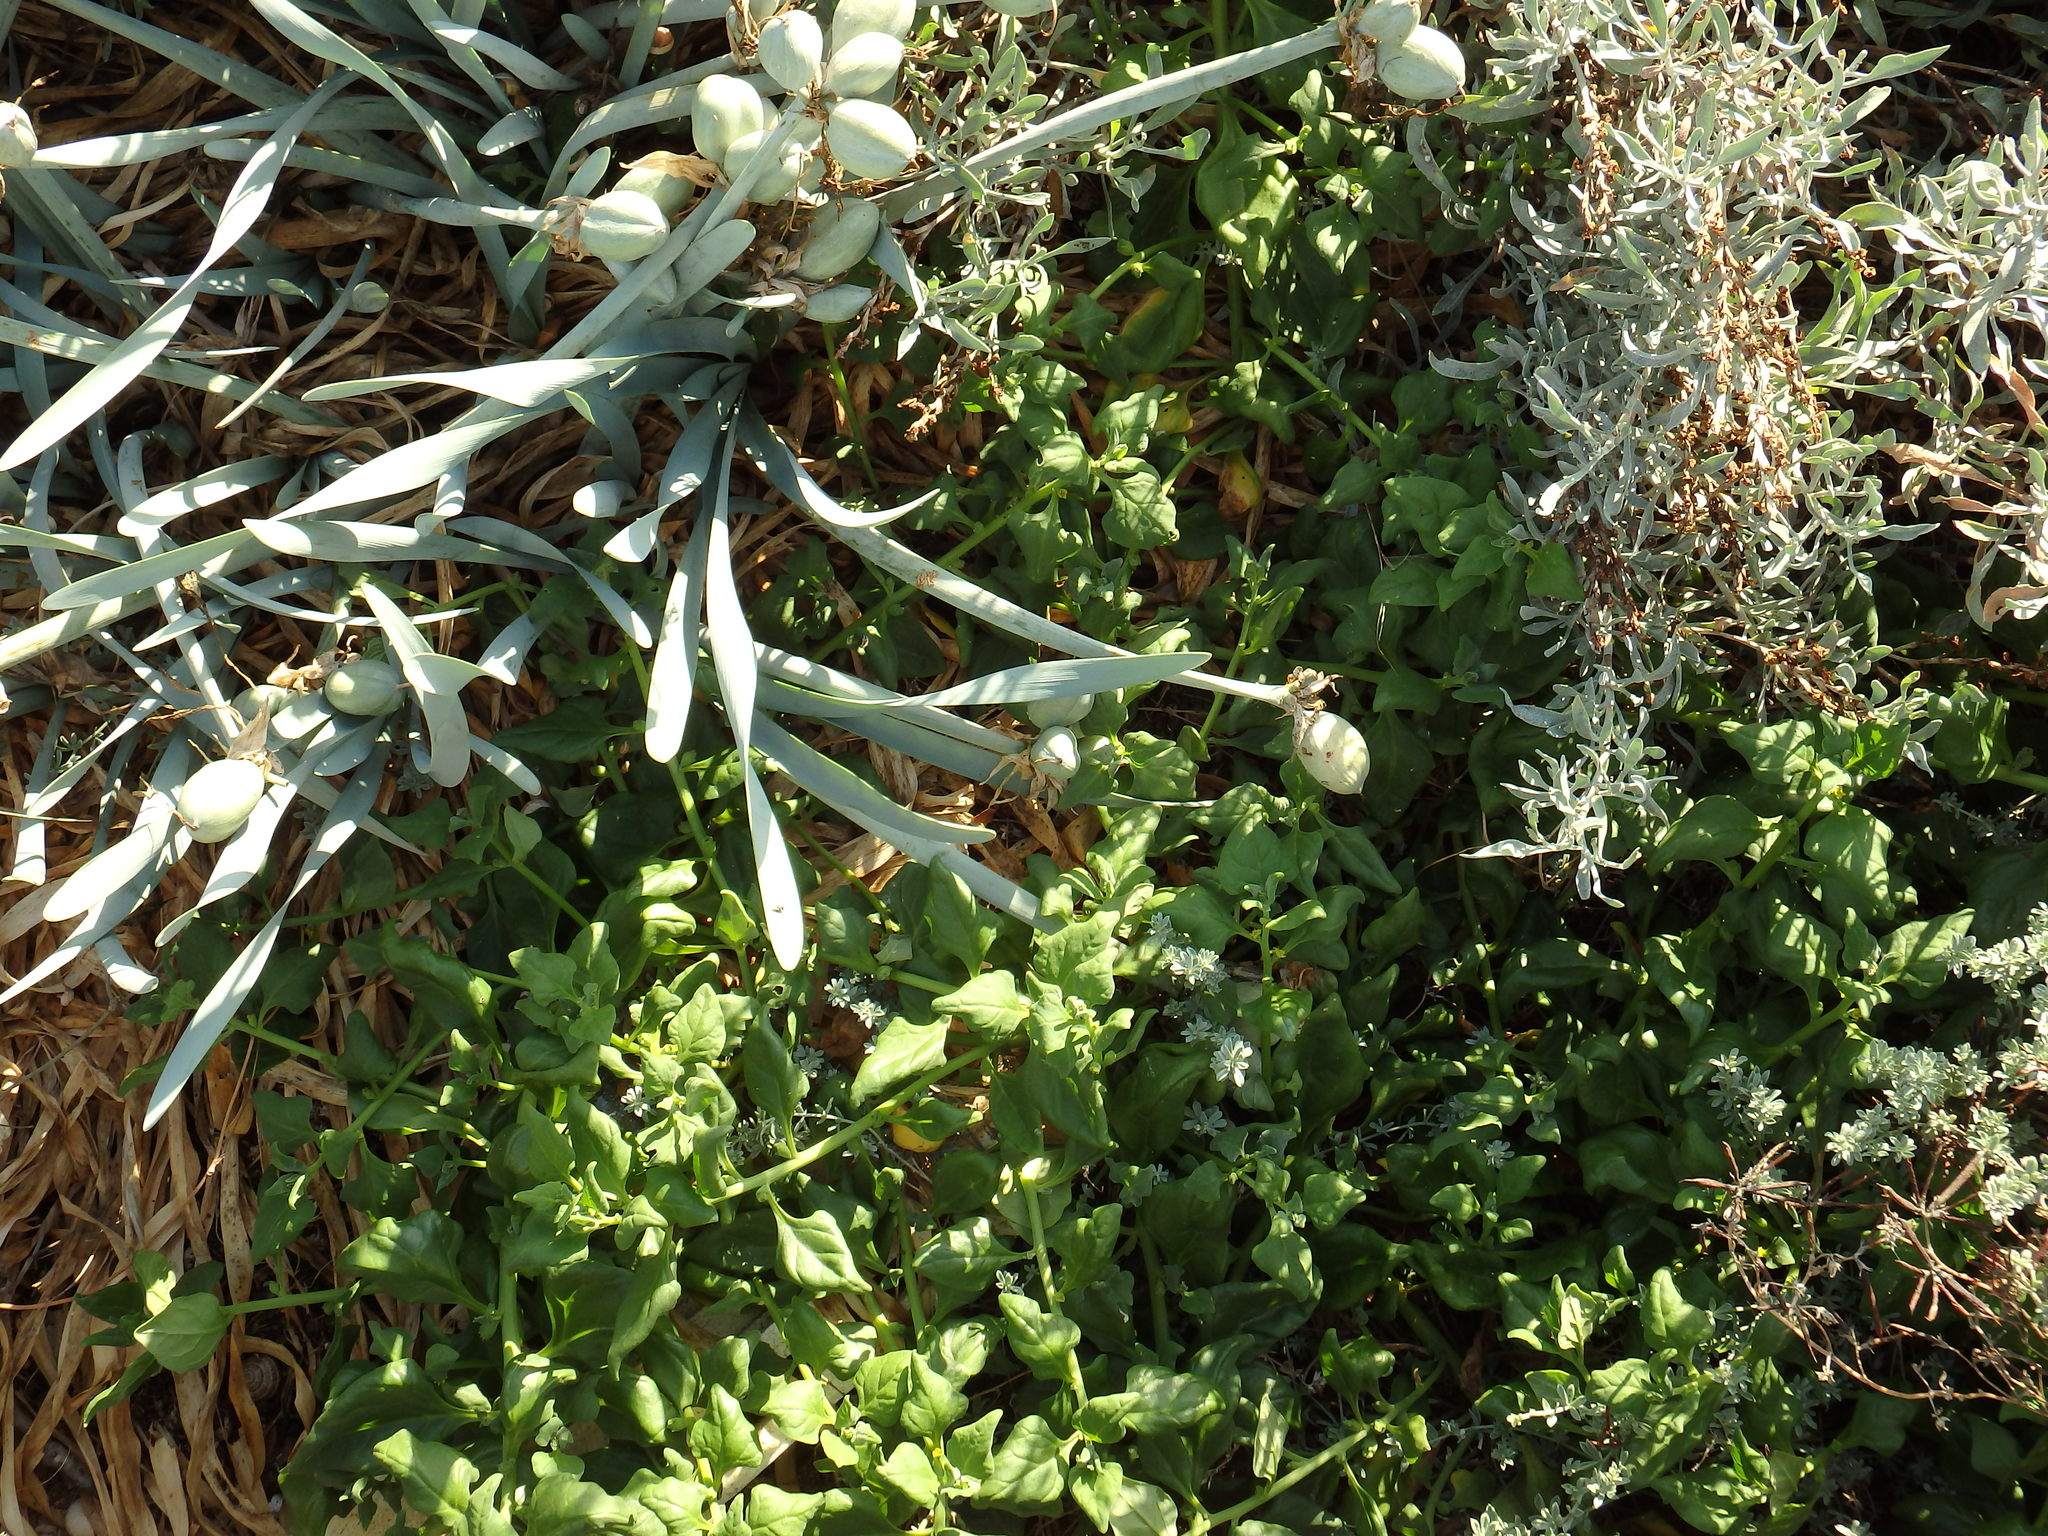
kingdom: Plantae
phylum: Tracheophyta
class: Magnoliopsida
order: Caryophyllales
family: Aizoaceae
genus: Tetragonia
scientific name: Tetragonia tetragonoides
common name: New zealand-spinach
